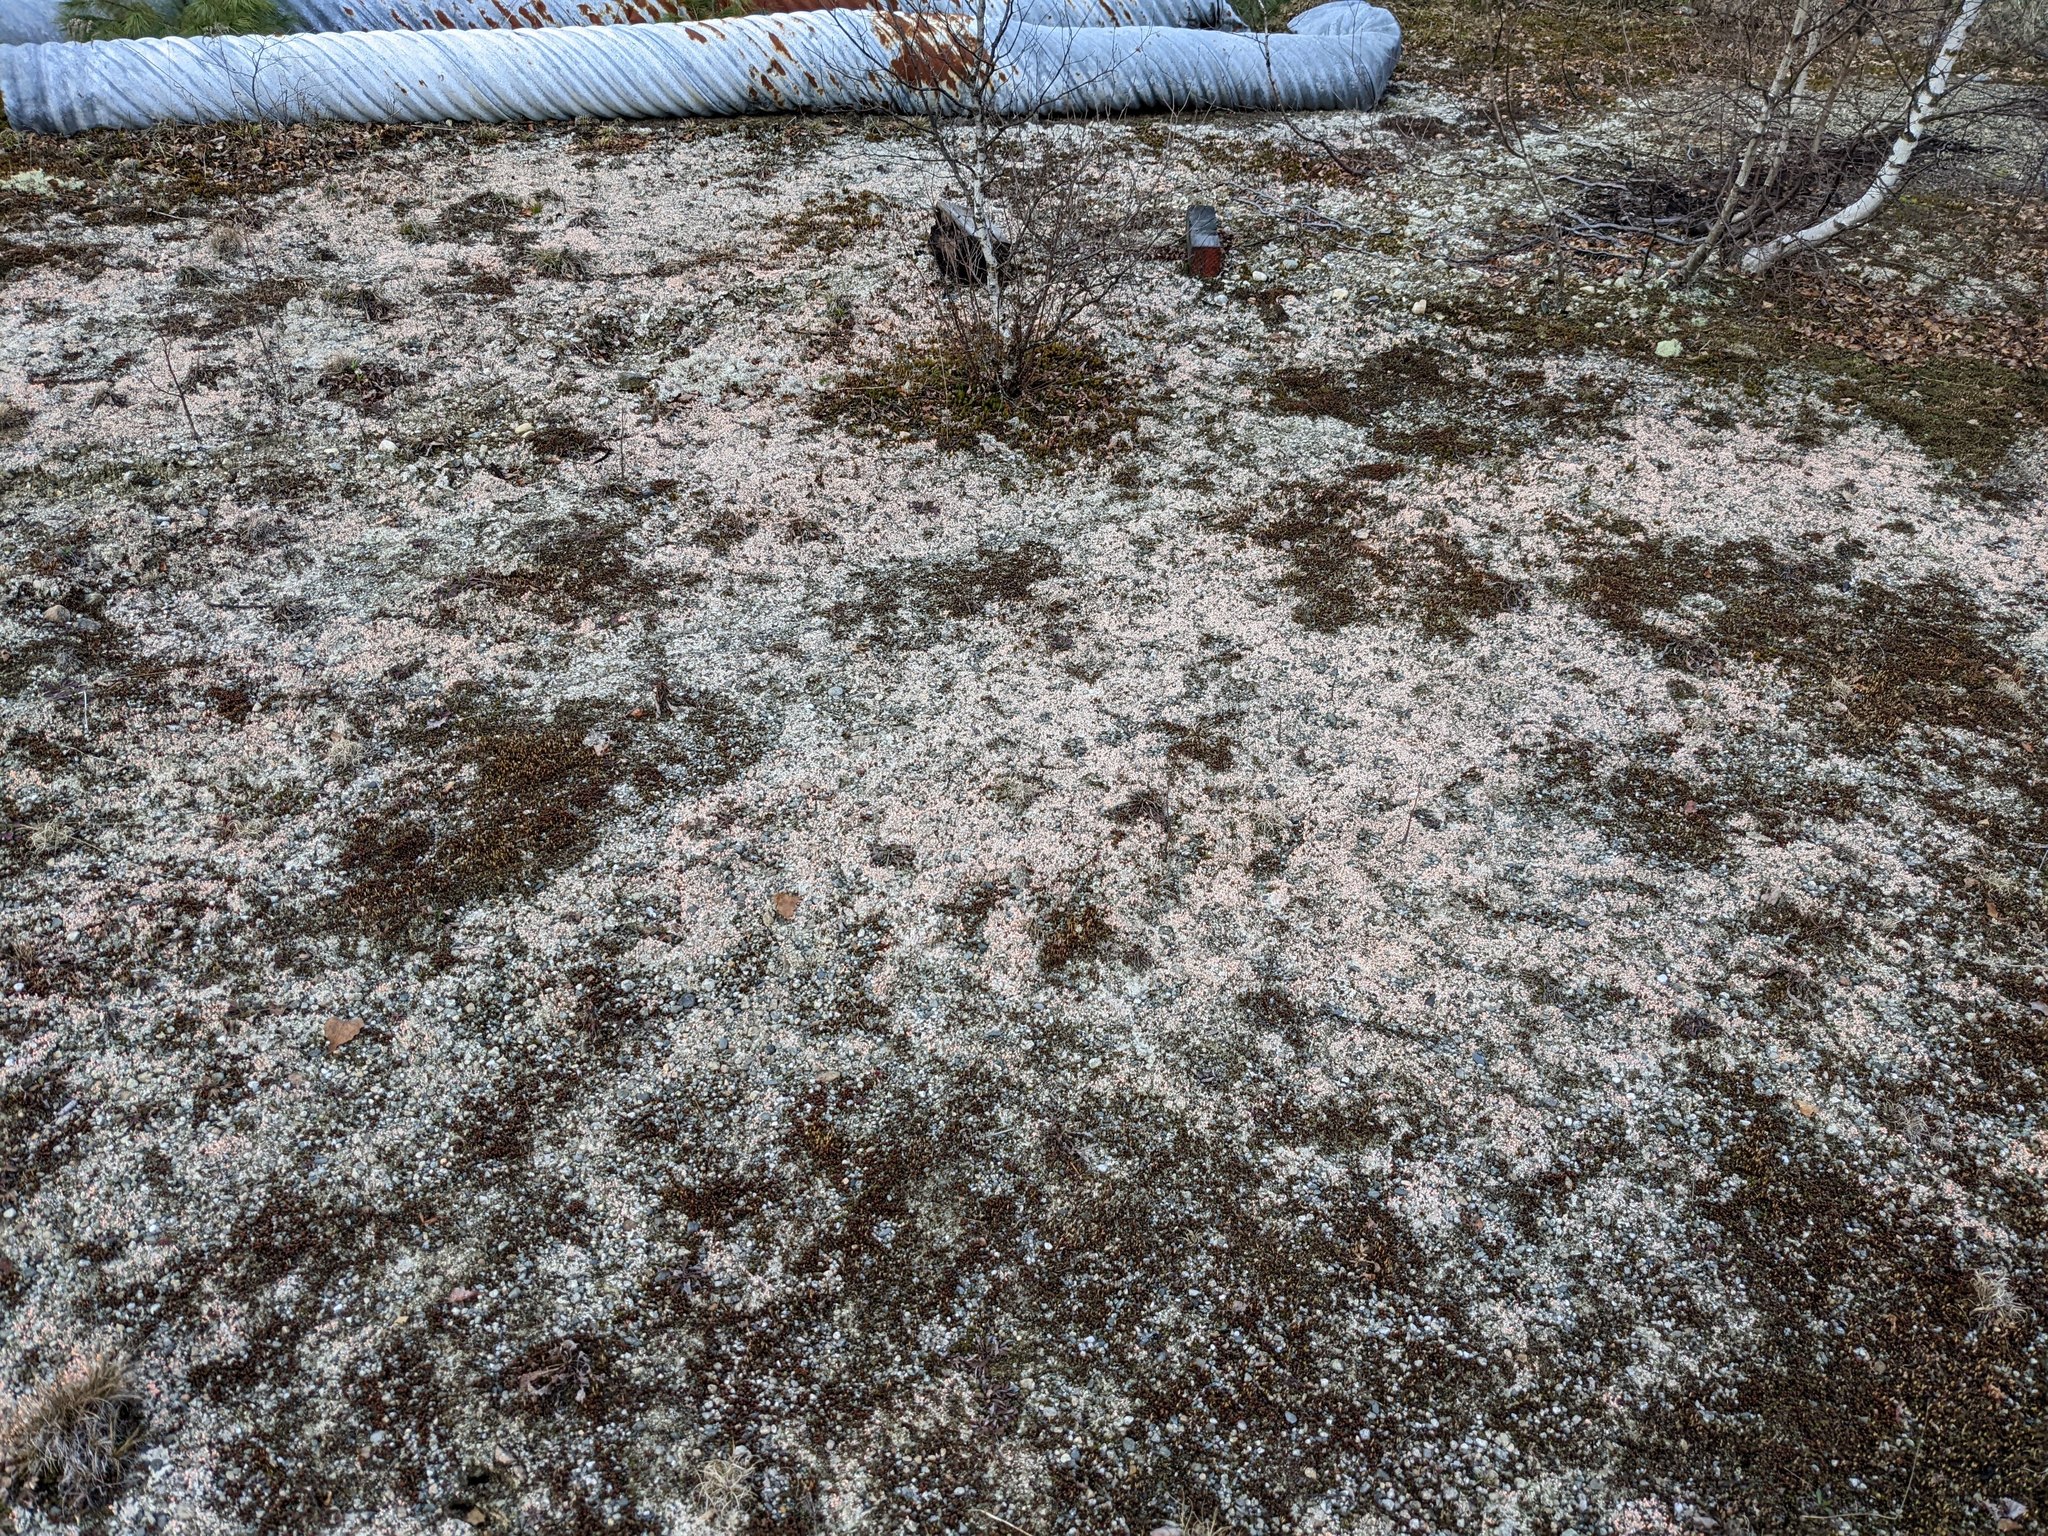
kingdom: Fungi
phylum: Ascomycota
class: Lecanoromycetes
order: Pertusariales
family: Icmadophilaceae
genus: Dibaeis
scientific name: Dibaeis baeomyces
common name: Pink earth lichen
